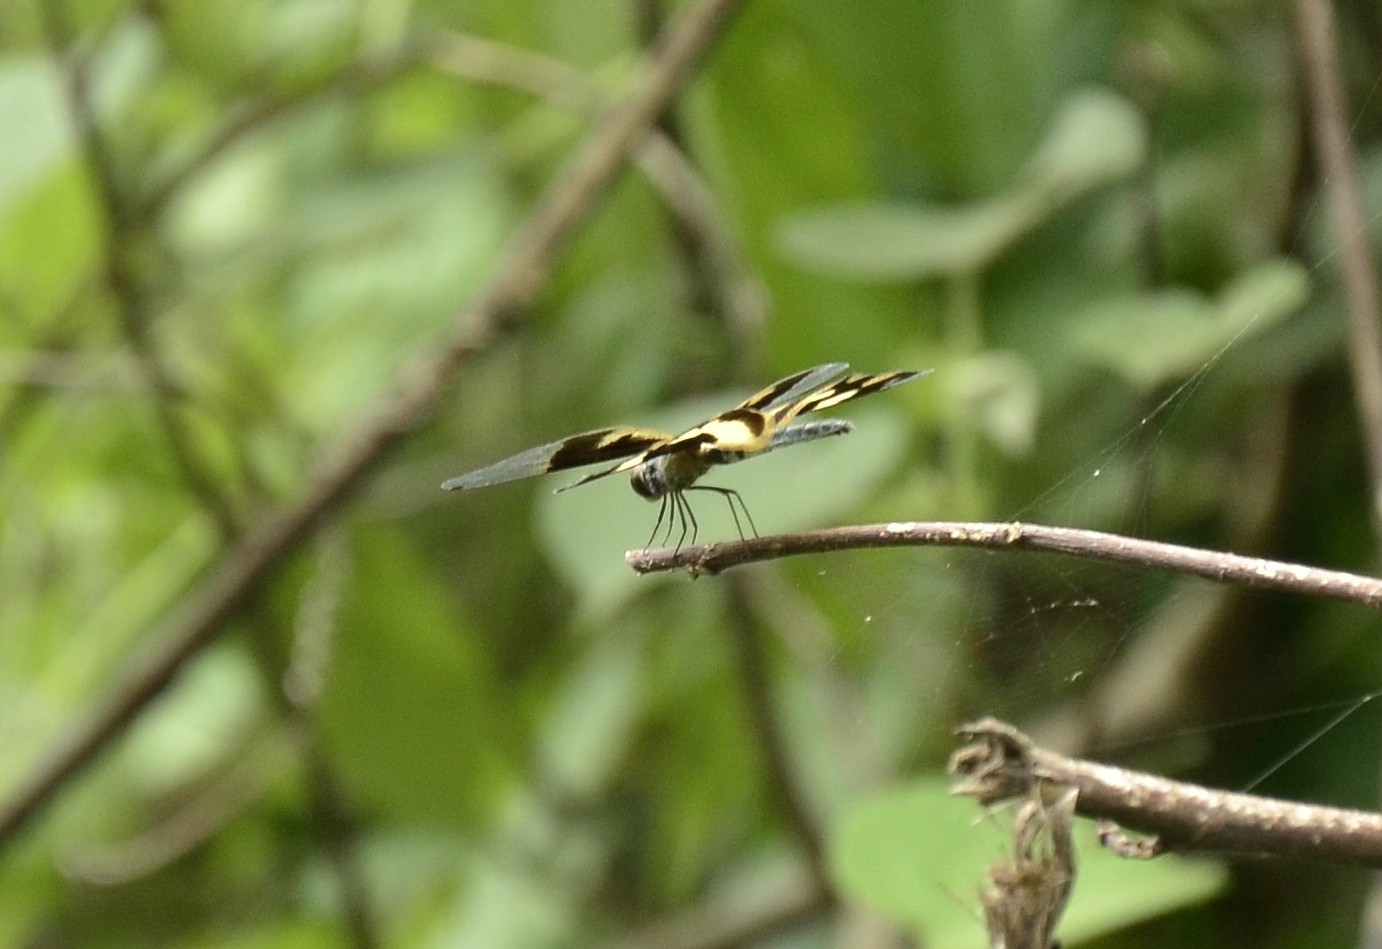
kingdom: Animalia
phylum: Arthropoda
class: Insecta
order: Odonata
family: Libellulidae
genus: Rhyothemis
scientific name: Rhyothemis variegata
